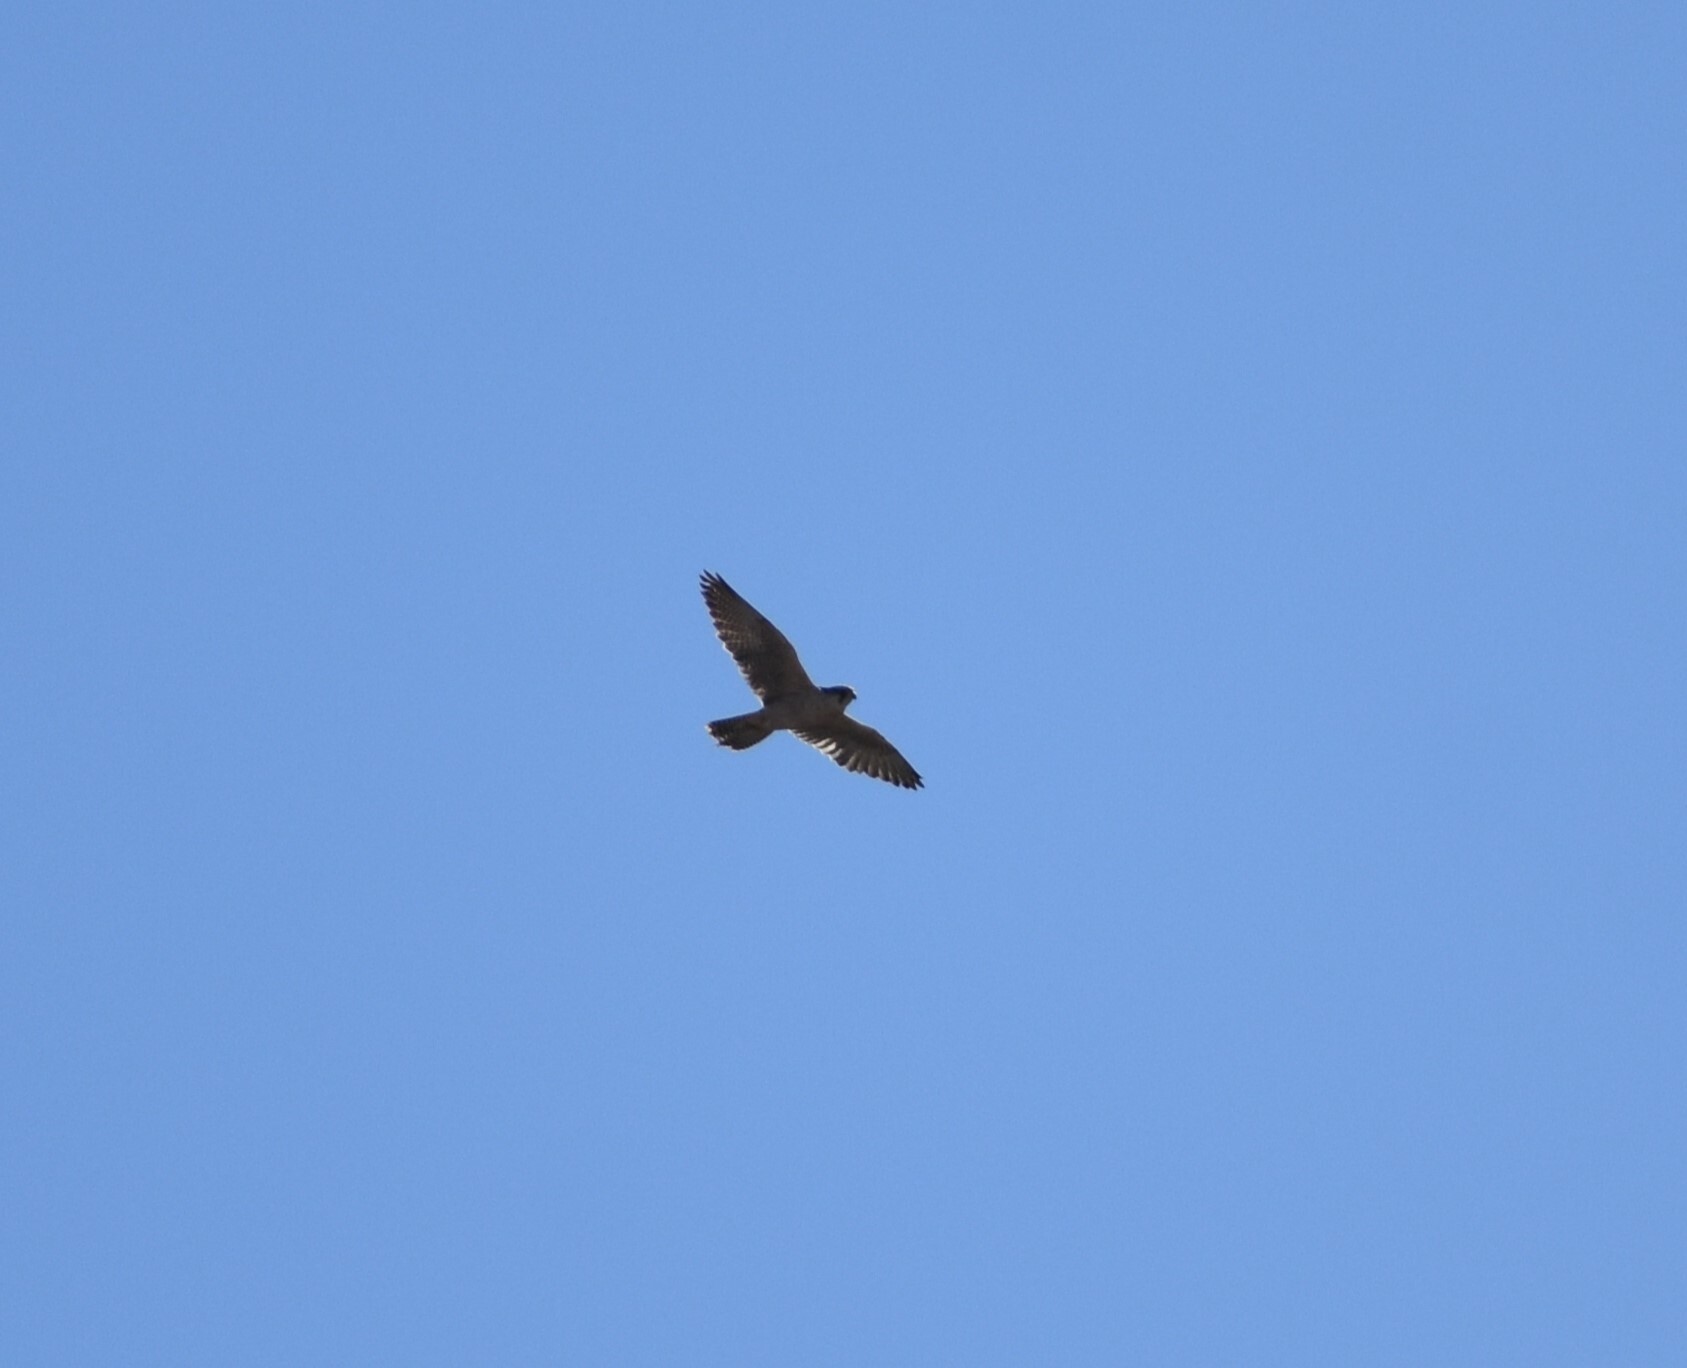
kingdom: Animalia
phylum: Chordata
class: Aves
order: Falconiformes
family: Falconidae
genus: Falco
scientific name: Falco biarmicus
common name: Lanner falcon
